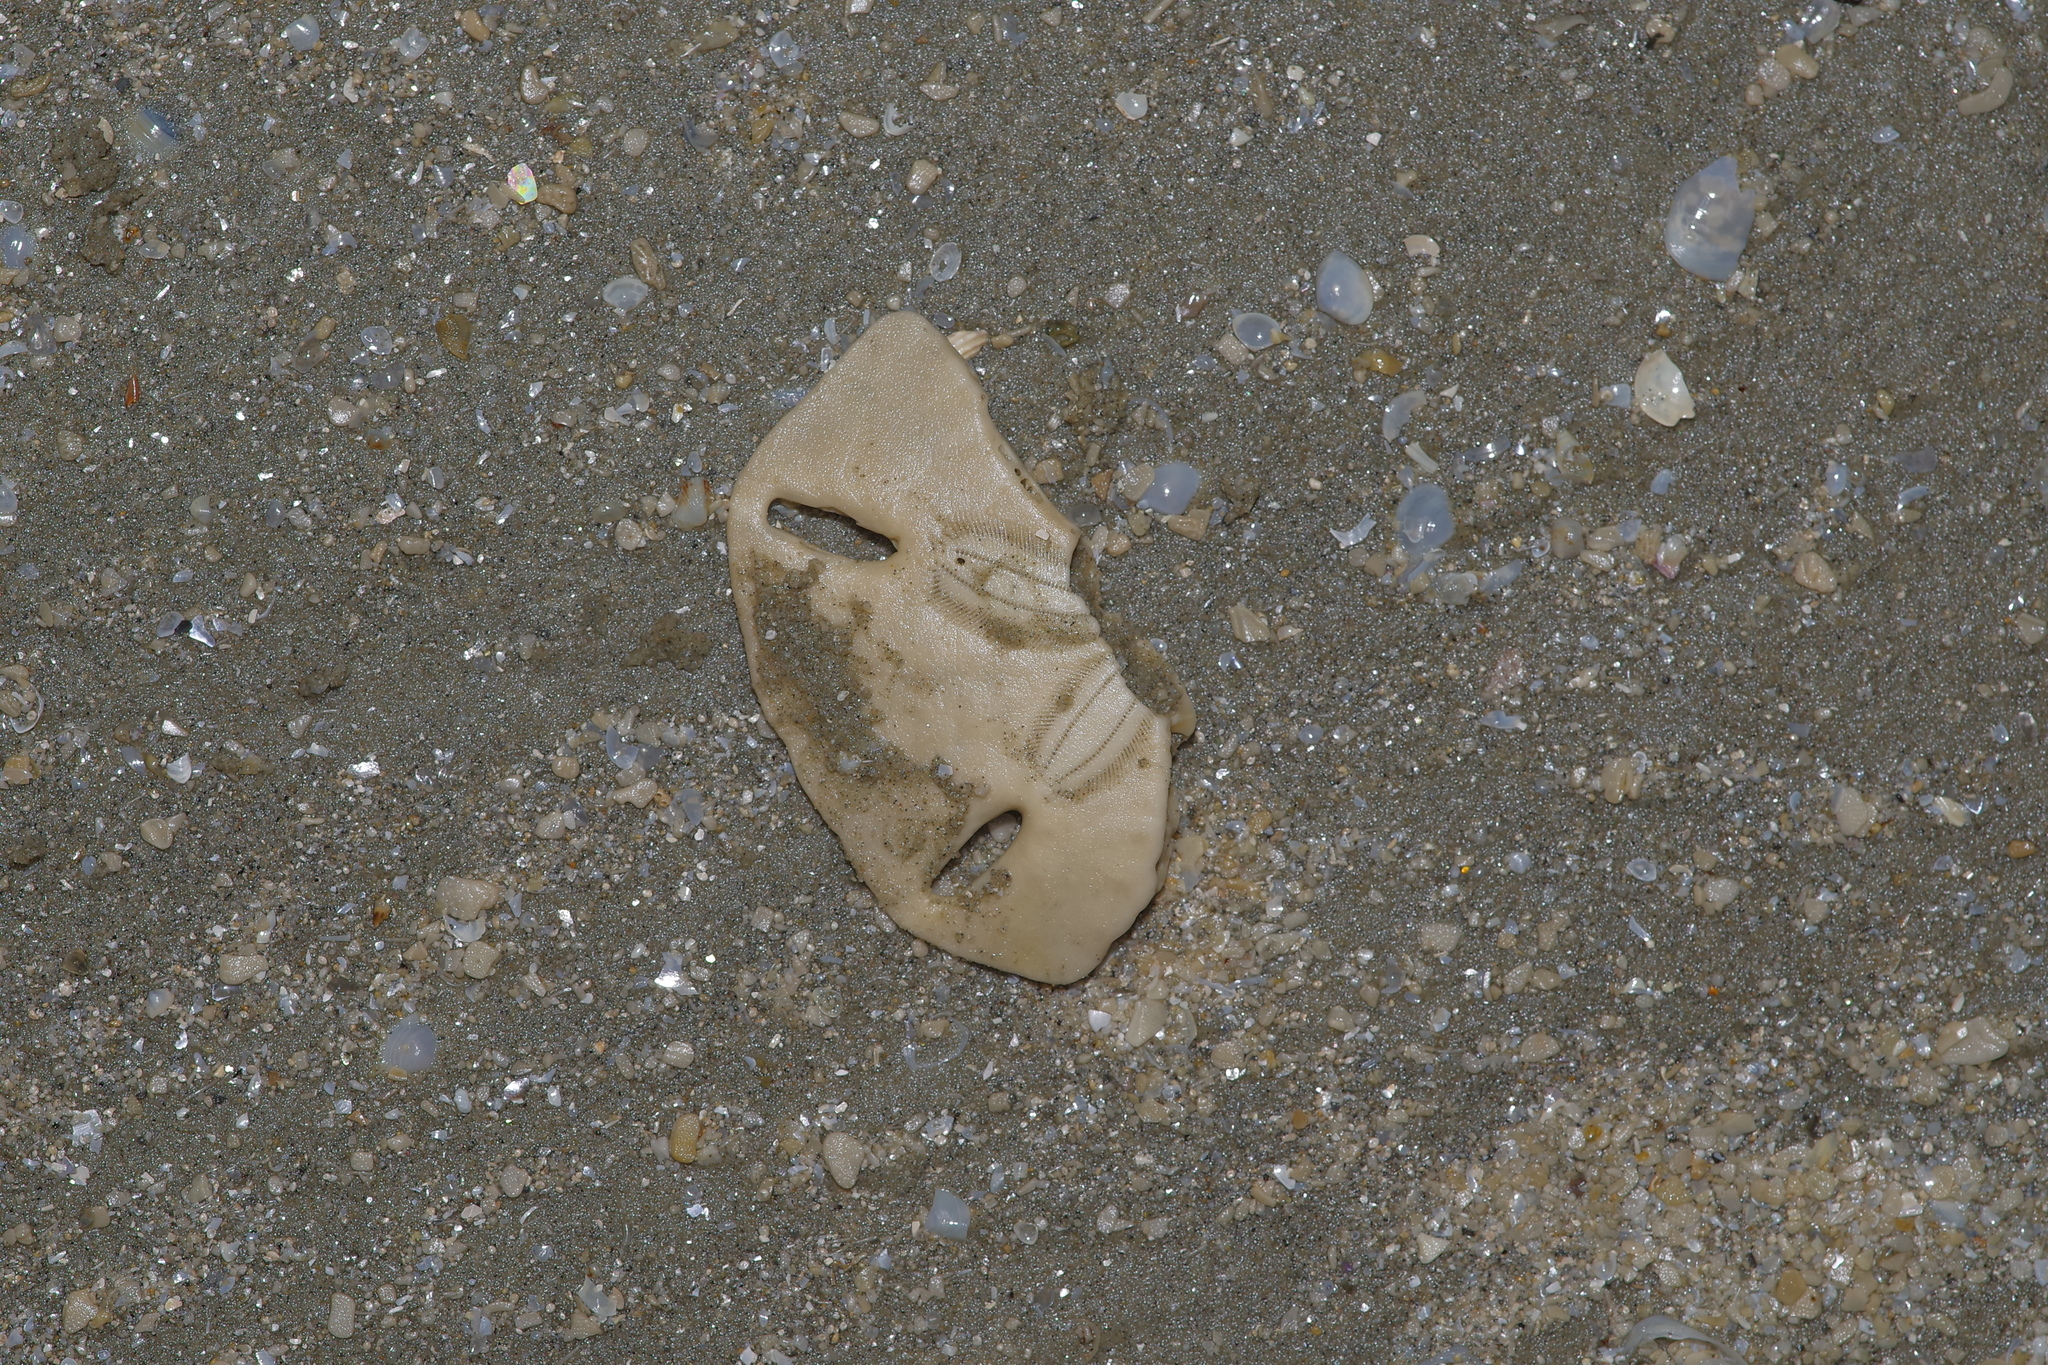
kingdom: Animalia
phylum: Echinodermata
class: Echinoidea
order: Echinolampadacea
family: Mellitidae
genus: Mellita
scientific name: Mellita quinquiesperforata
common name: Sand dollar
